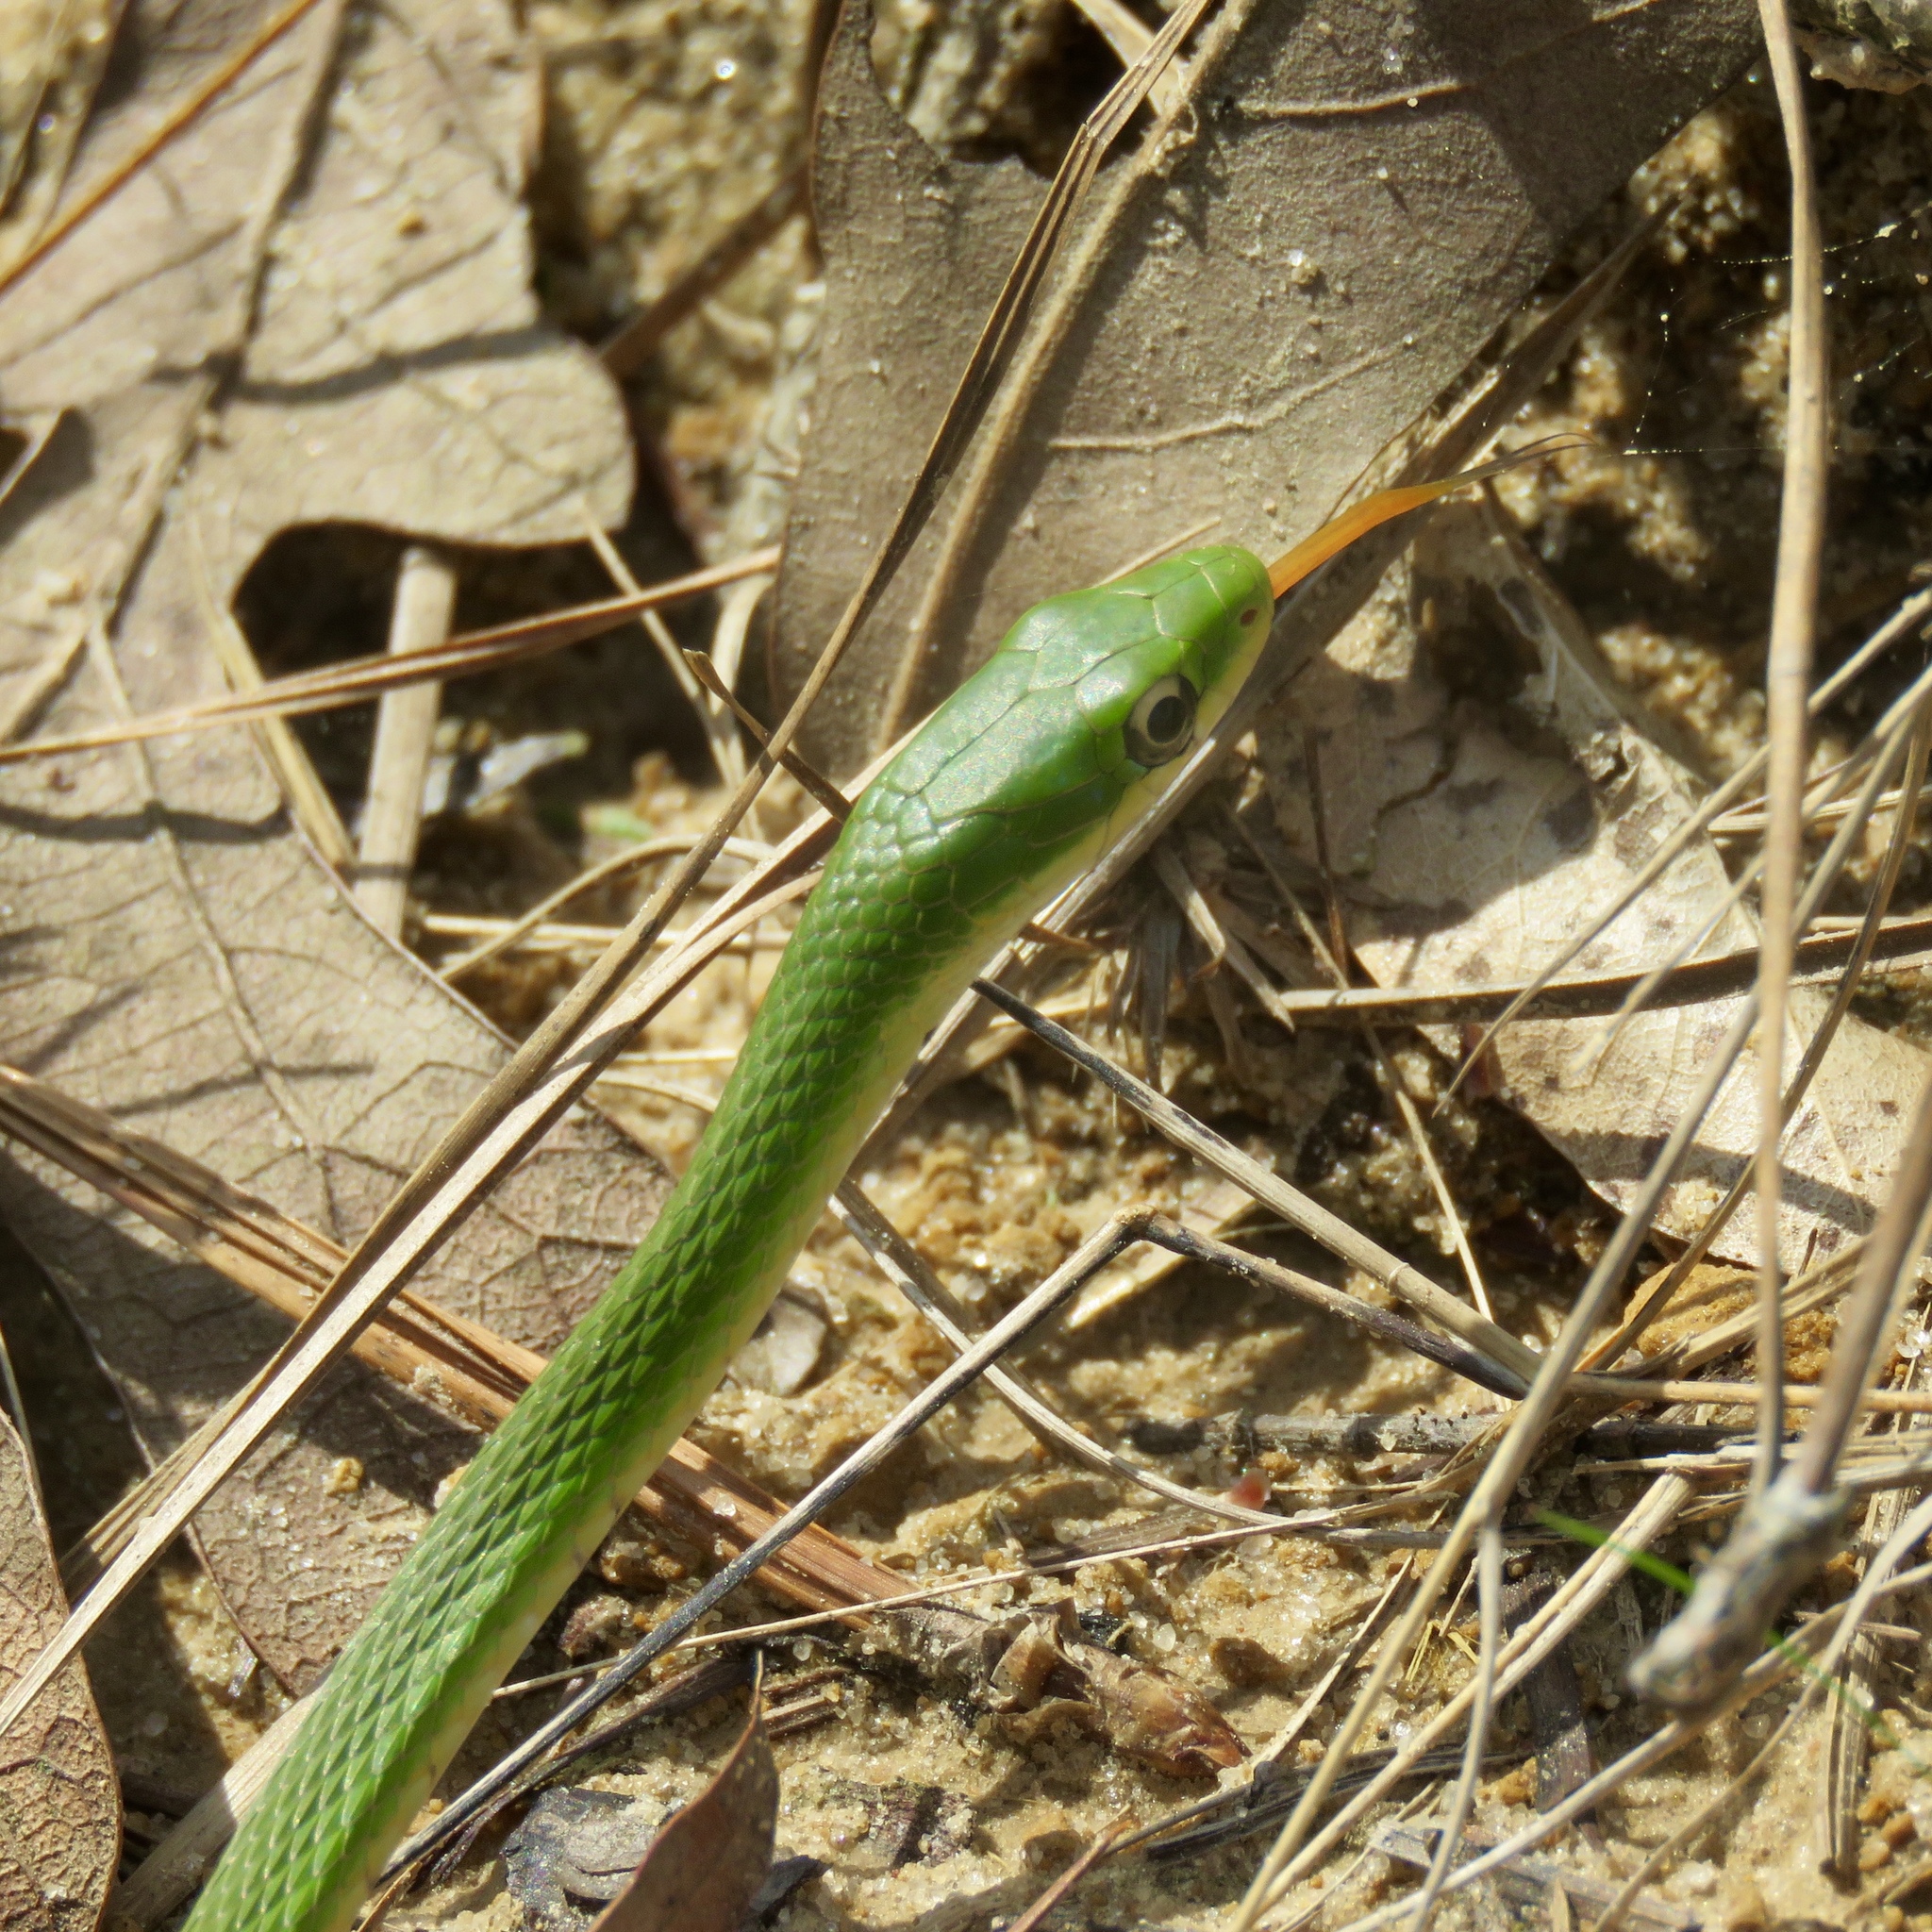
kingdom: Animalia
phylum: Chordata
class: Squamata
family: Colubridae
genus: Opheodrys
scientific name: Opheodrys aestivus
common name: Rough greensnake
